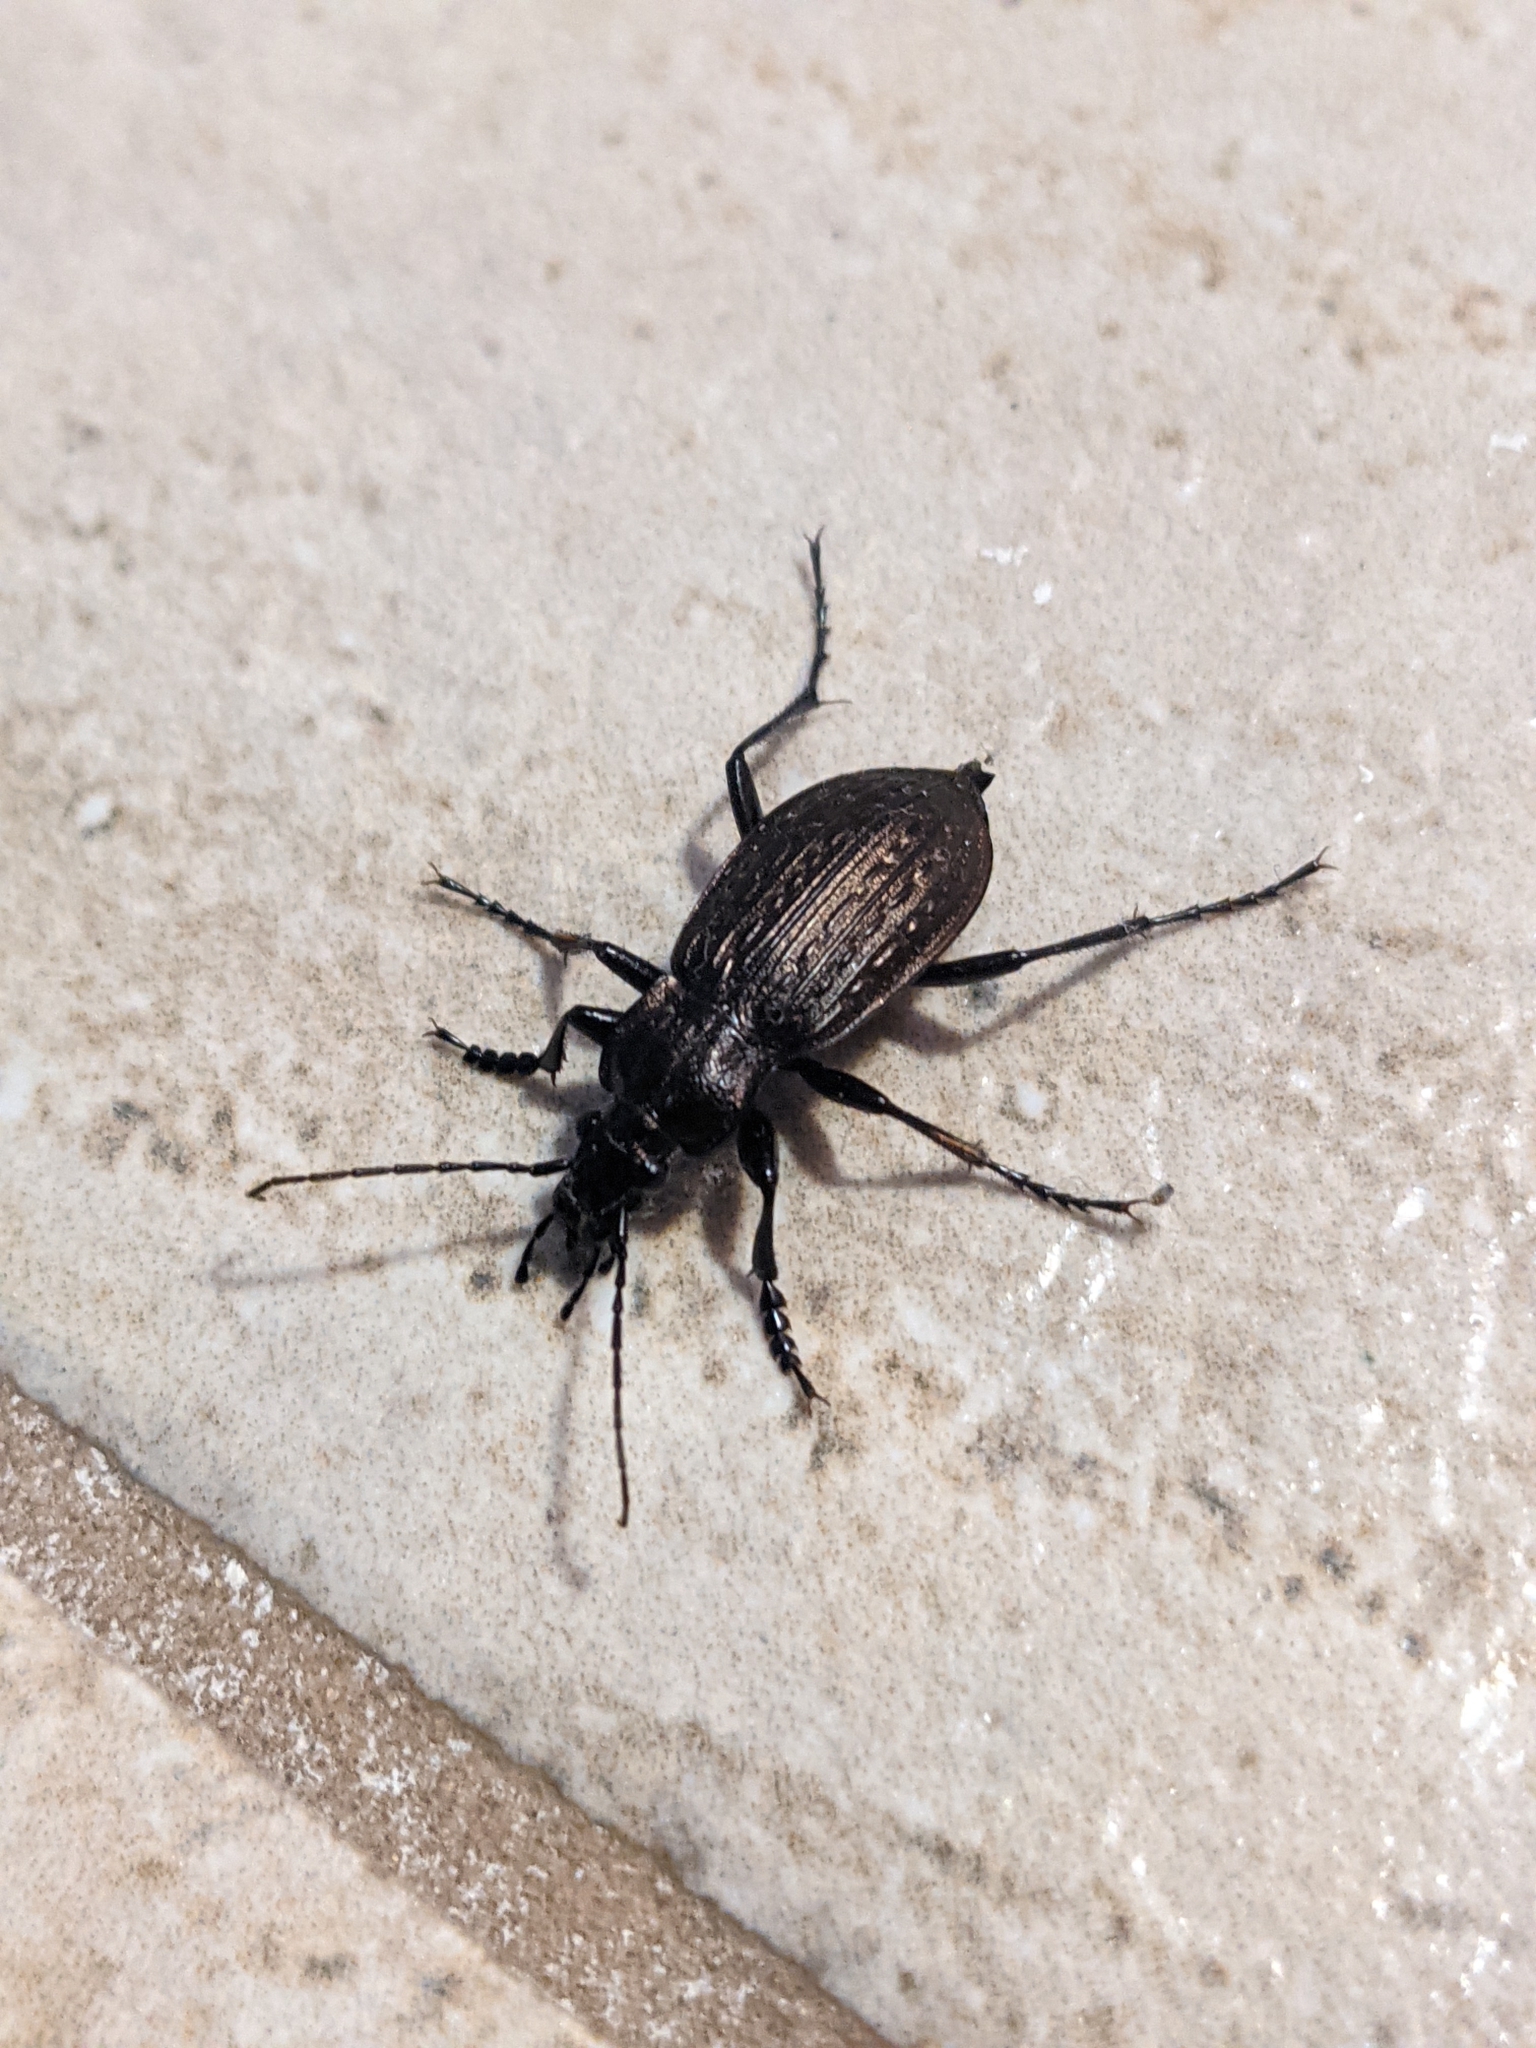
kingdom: Animalia
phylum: Arthropoda
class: Insecta
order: Coleoptera
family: Carabidae
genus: Carabus
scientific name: Carabus granulatus
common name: Granulate ground beetle
